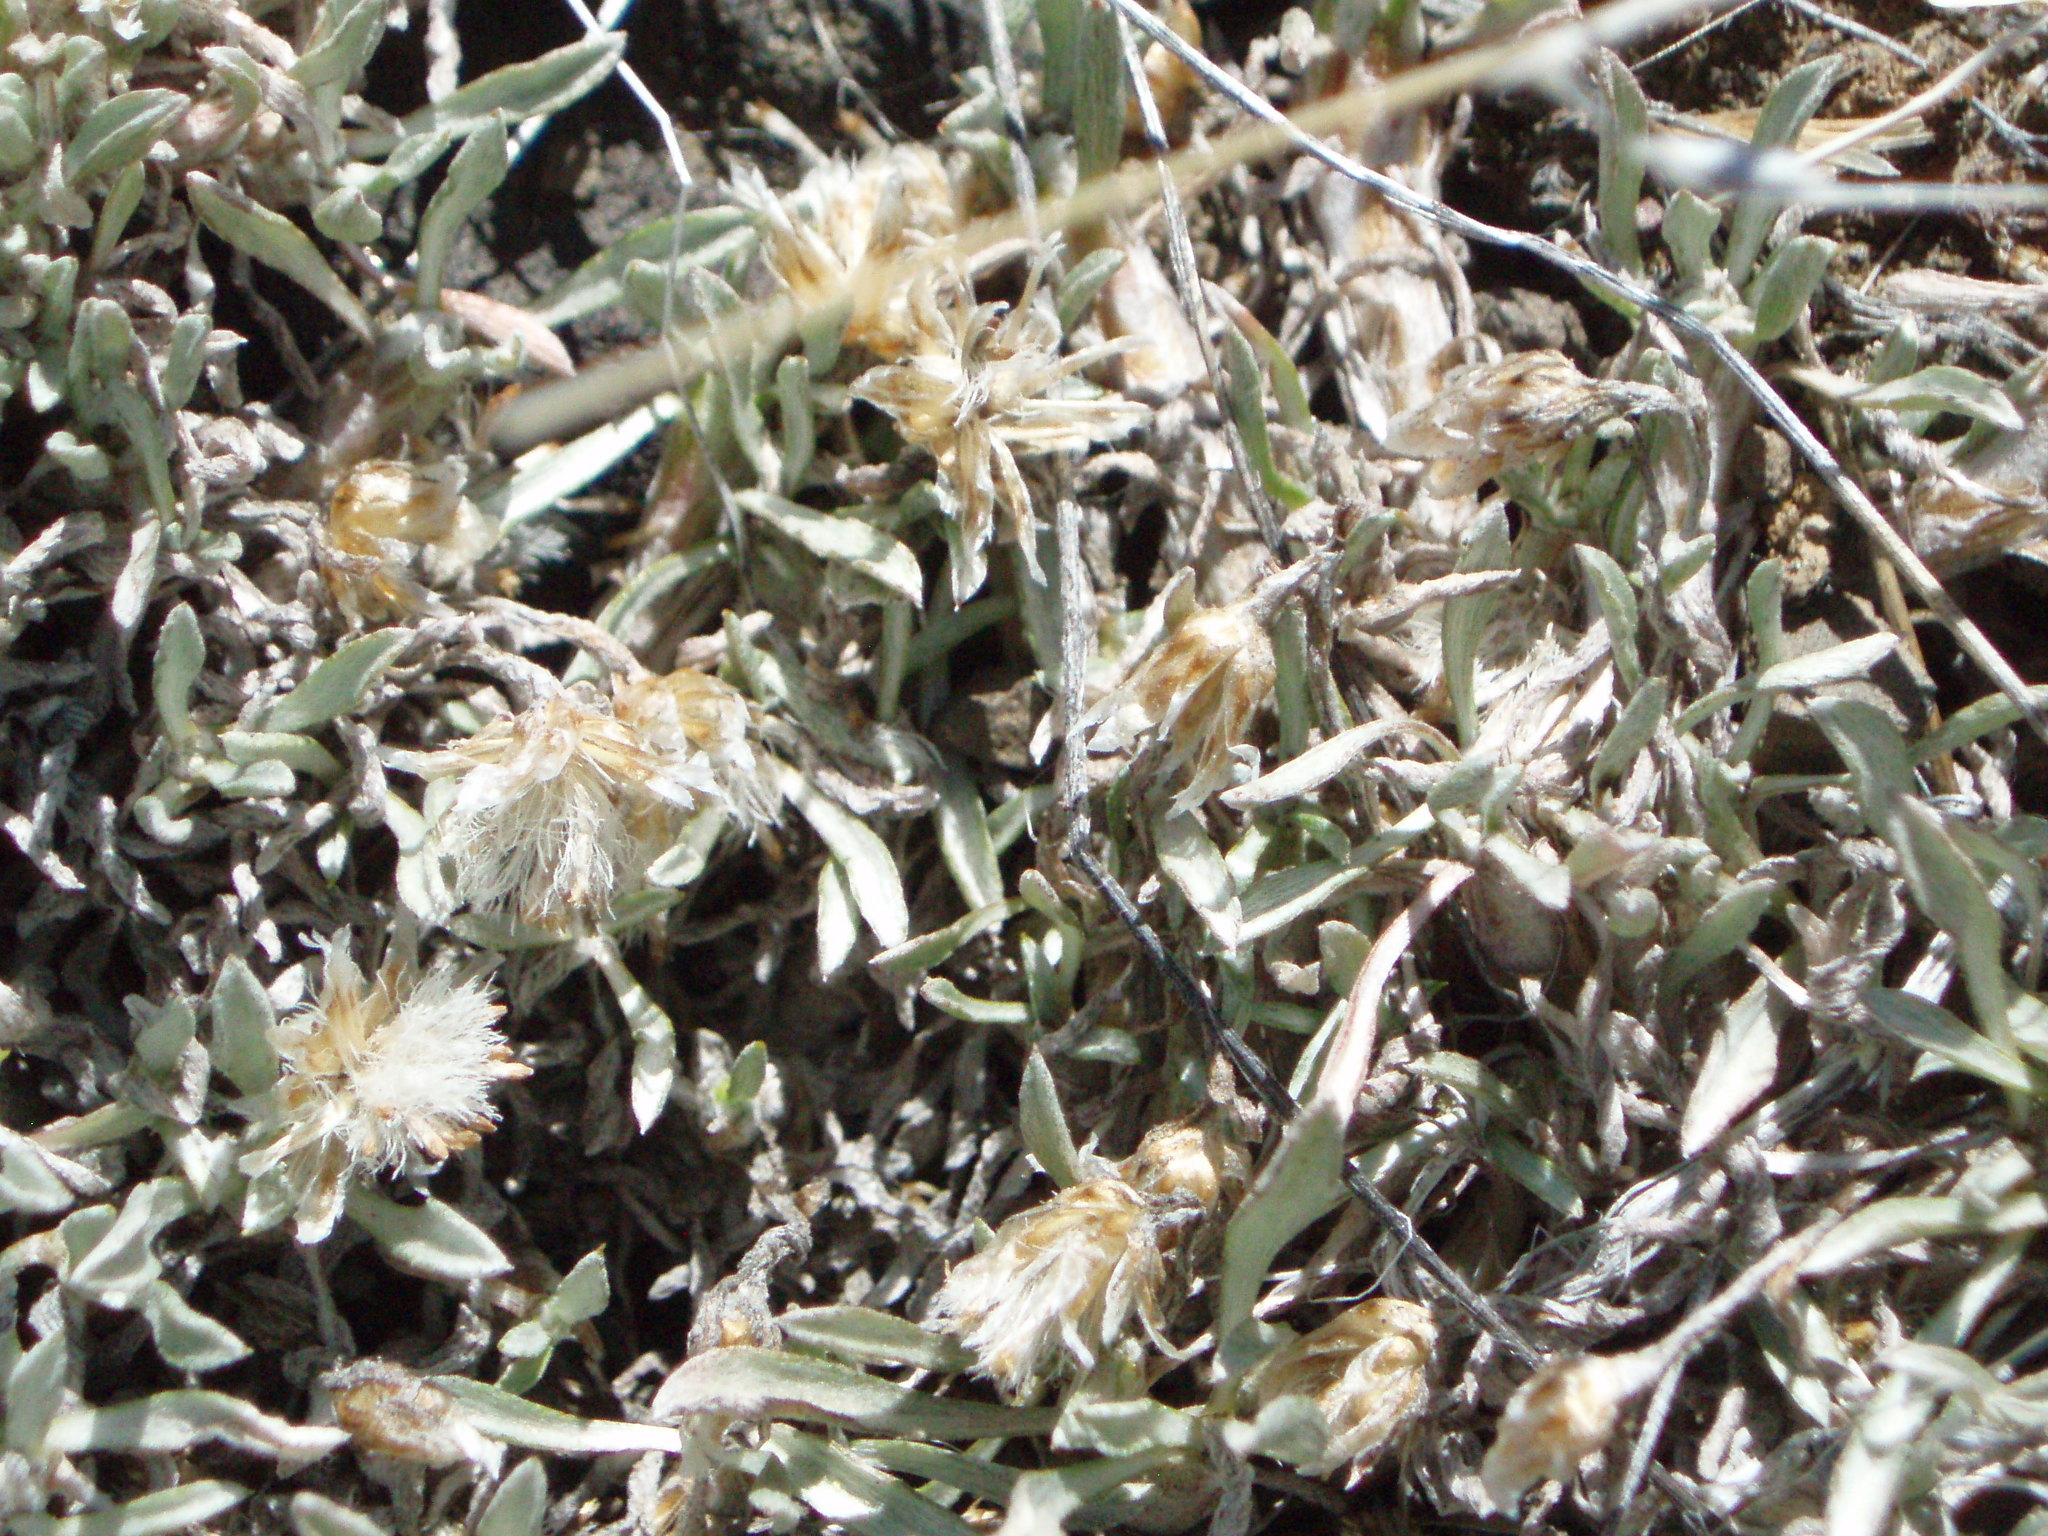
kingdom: Plantae
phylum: Tracheophyta
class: Magnoliopsida
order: Asterales
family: Asteraceae
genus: Antennaria
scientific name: Antennaria dimorpha
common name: Cushion pussytoes
